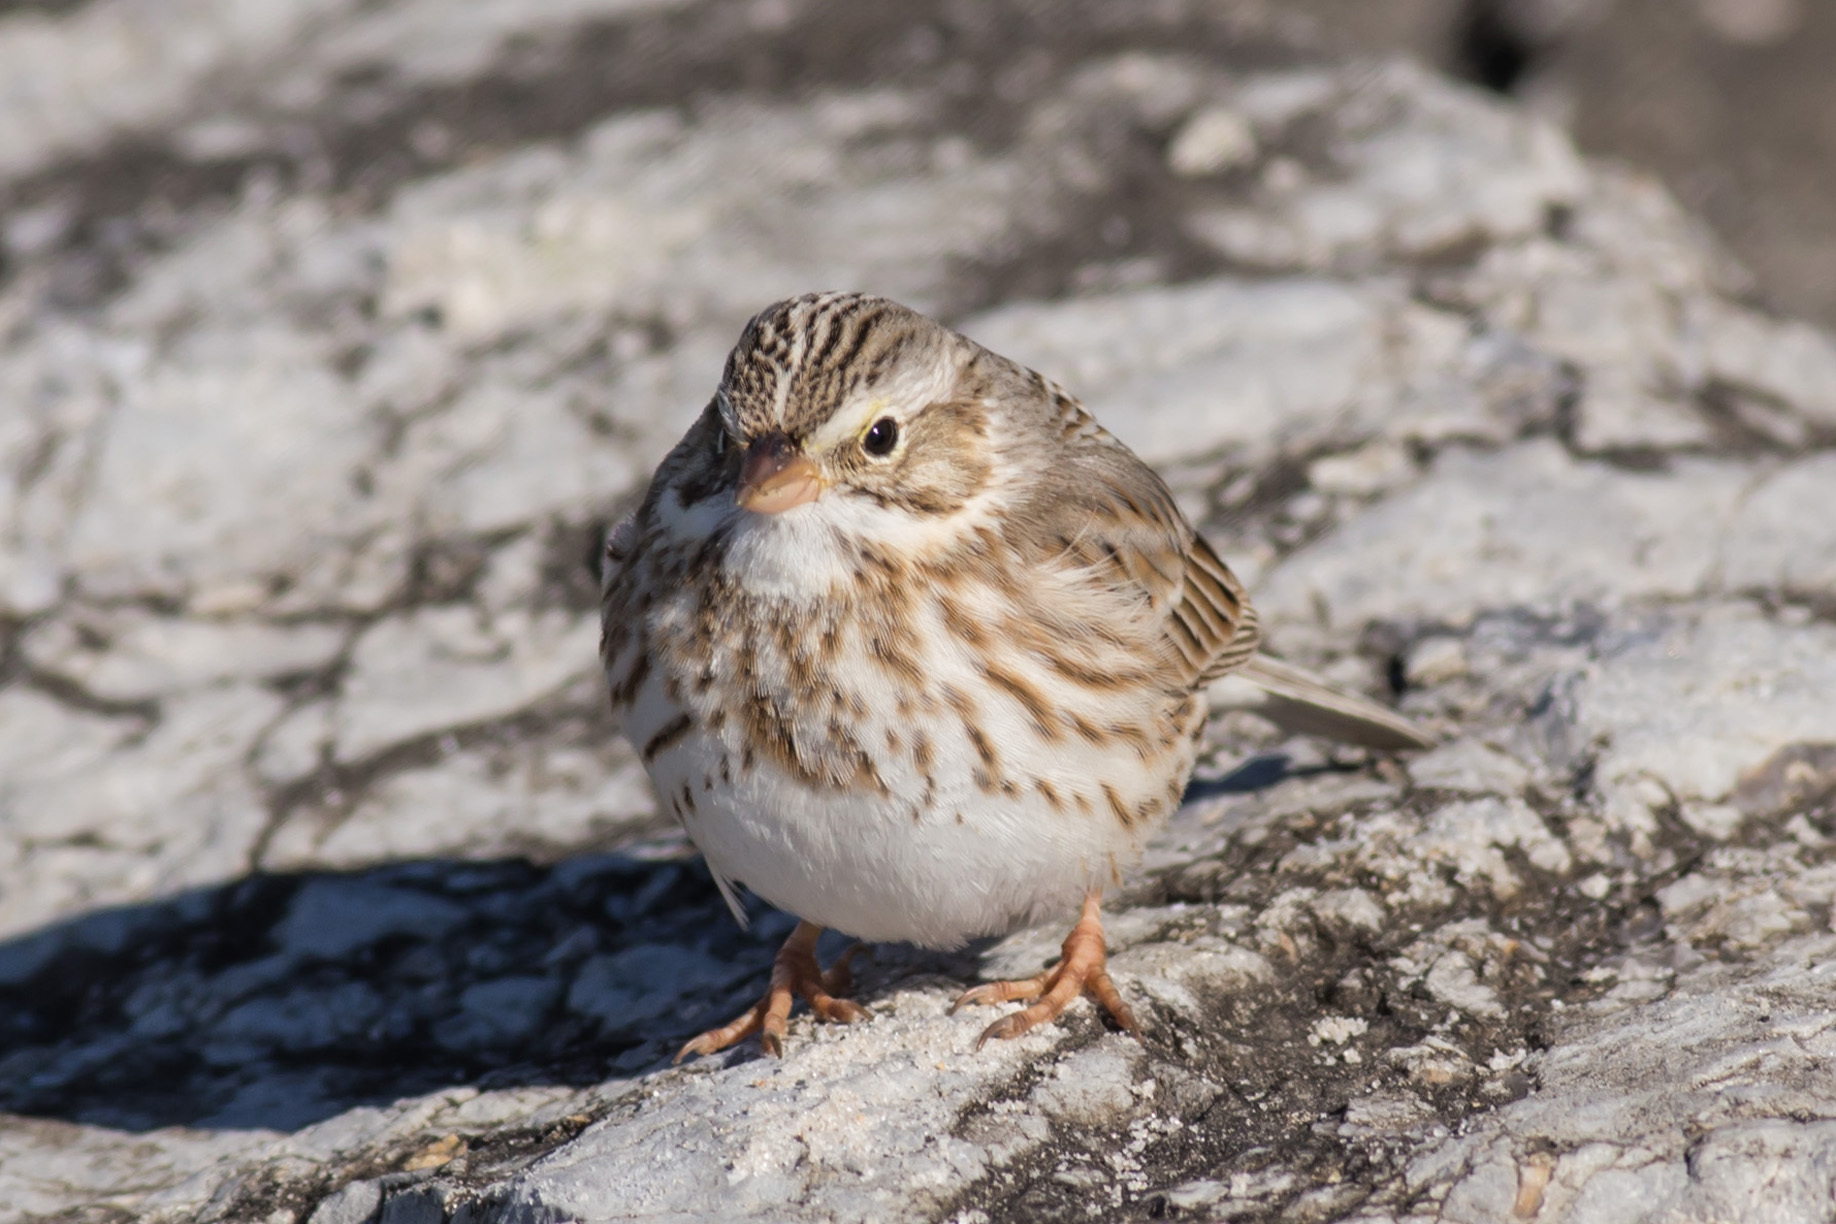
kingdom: Animalia
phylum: Chordata
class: Aves
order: Passeriformes
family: Passerellidae
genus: Passerculus
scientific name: Passerculus sandwichensis
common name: Savannah sparrow
